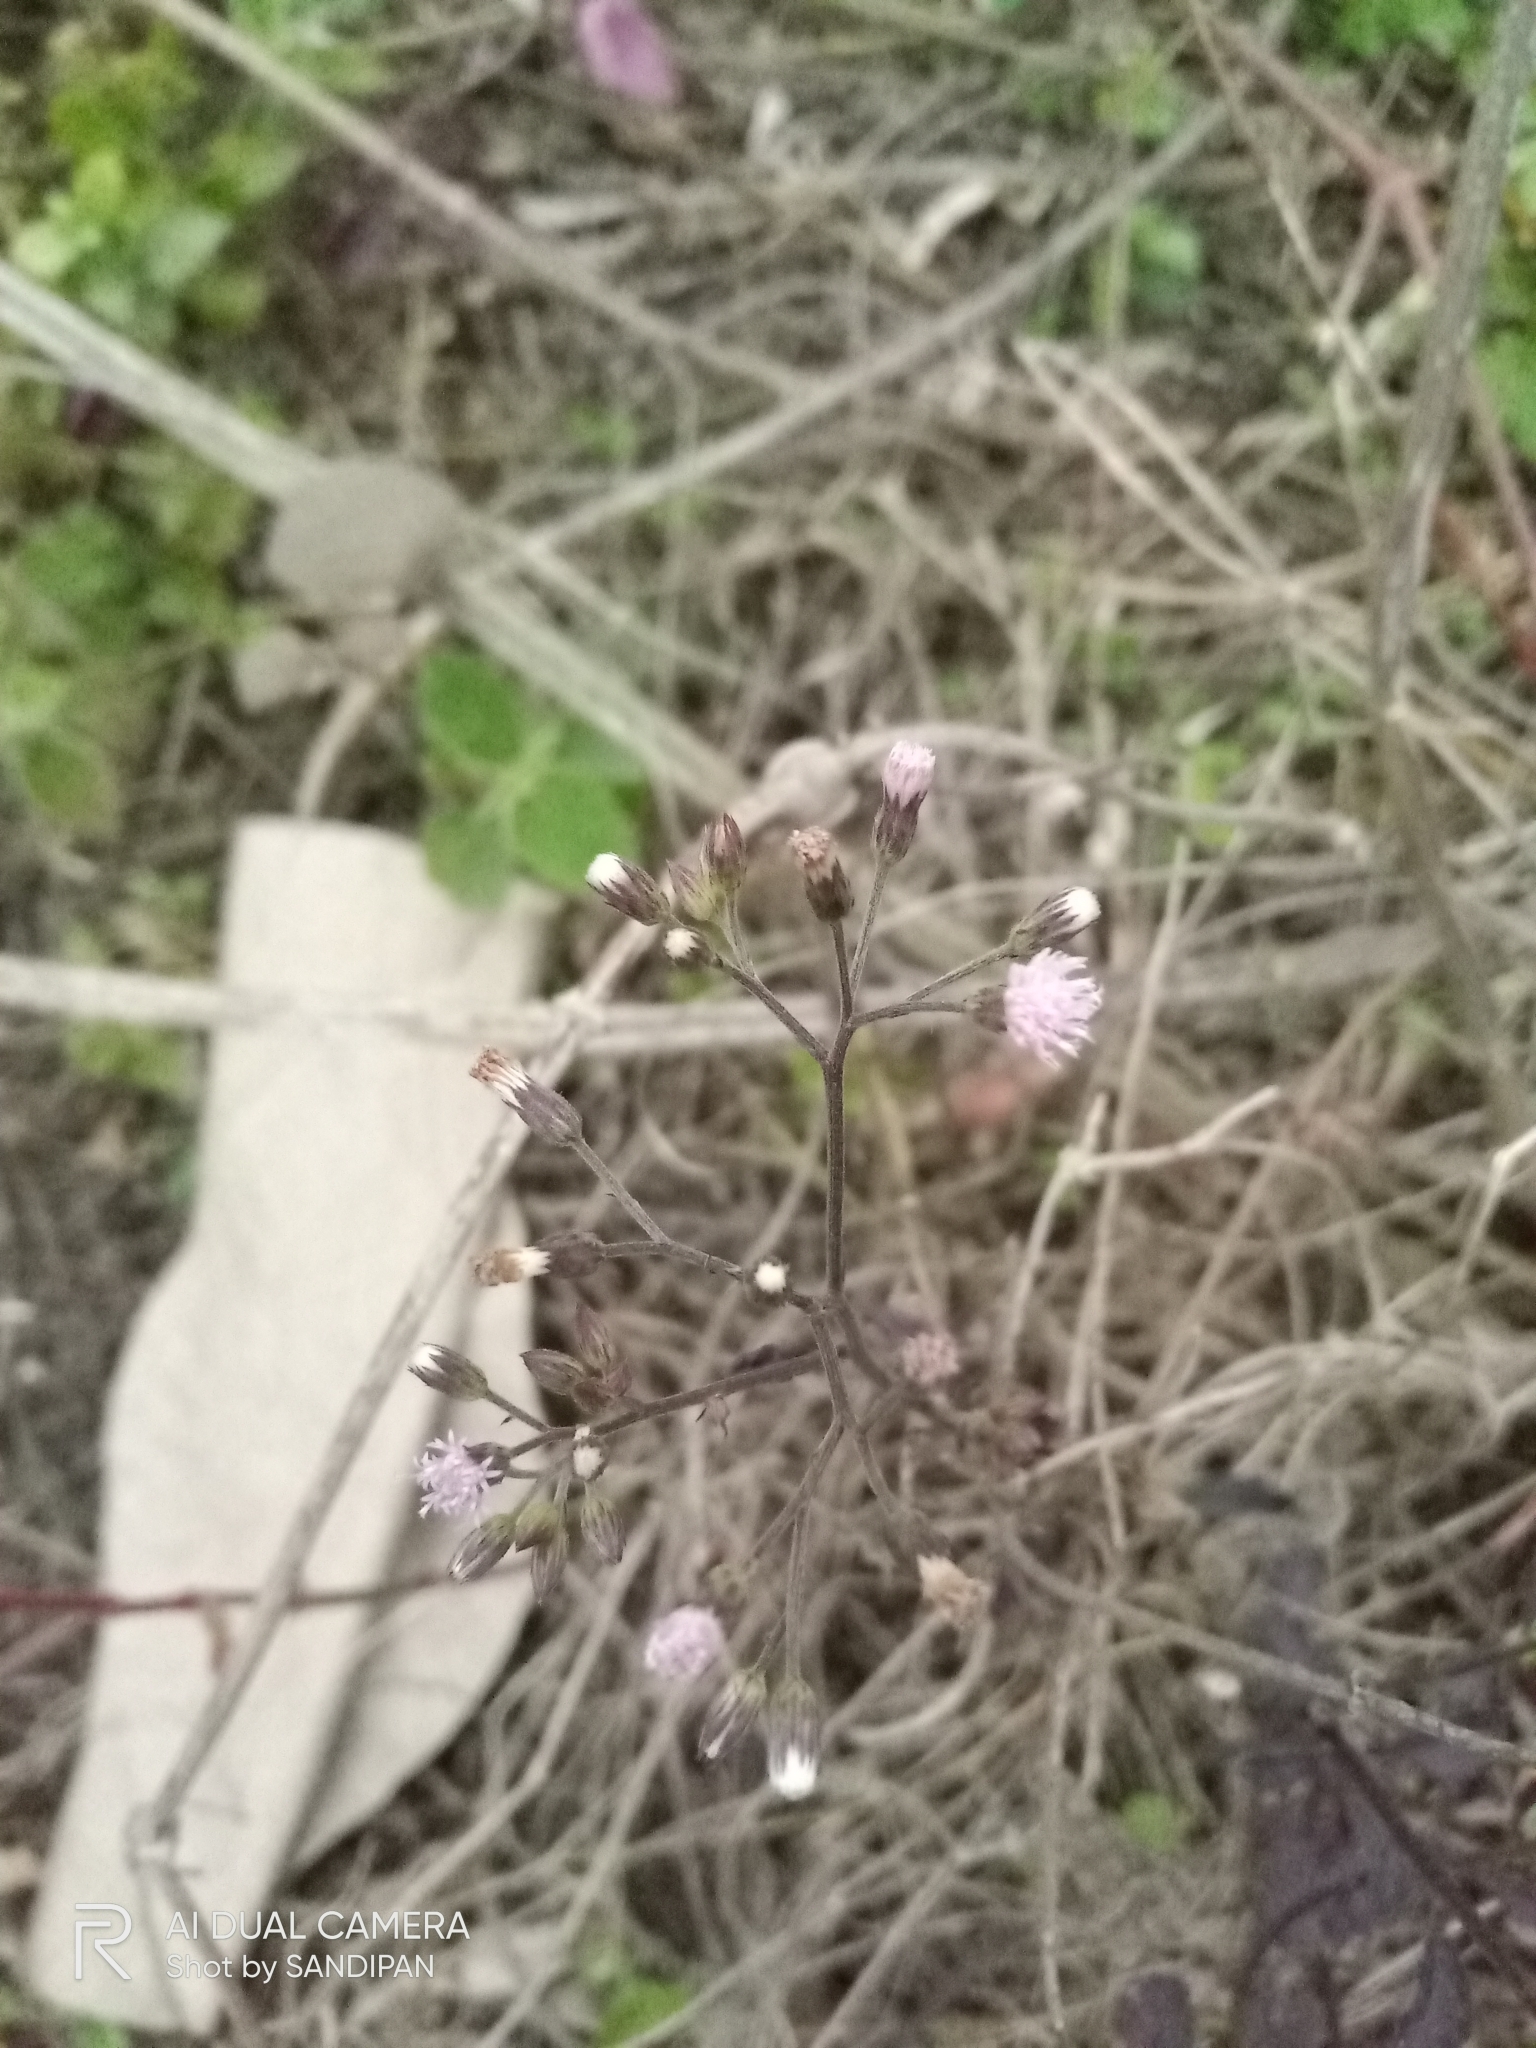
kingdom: Plantae
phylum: Tracheophyta
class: Magnoliopsida
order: Asterales
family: Asteraceae
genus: Cyanthillium
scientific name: Cyanthillium cinereum
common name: Little ironweed
